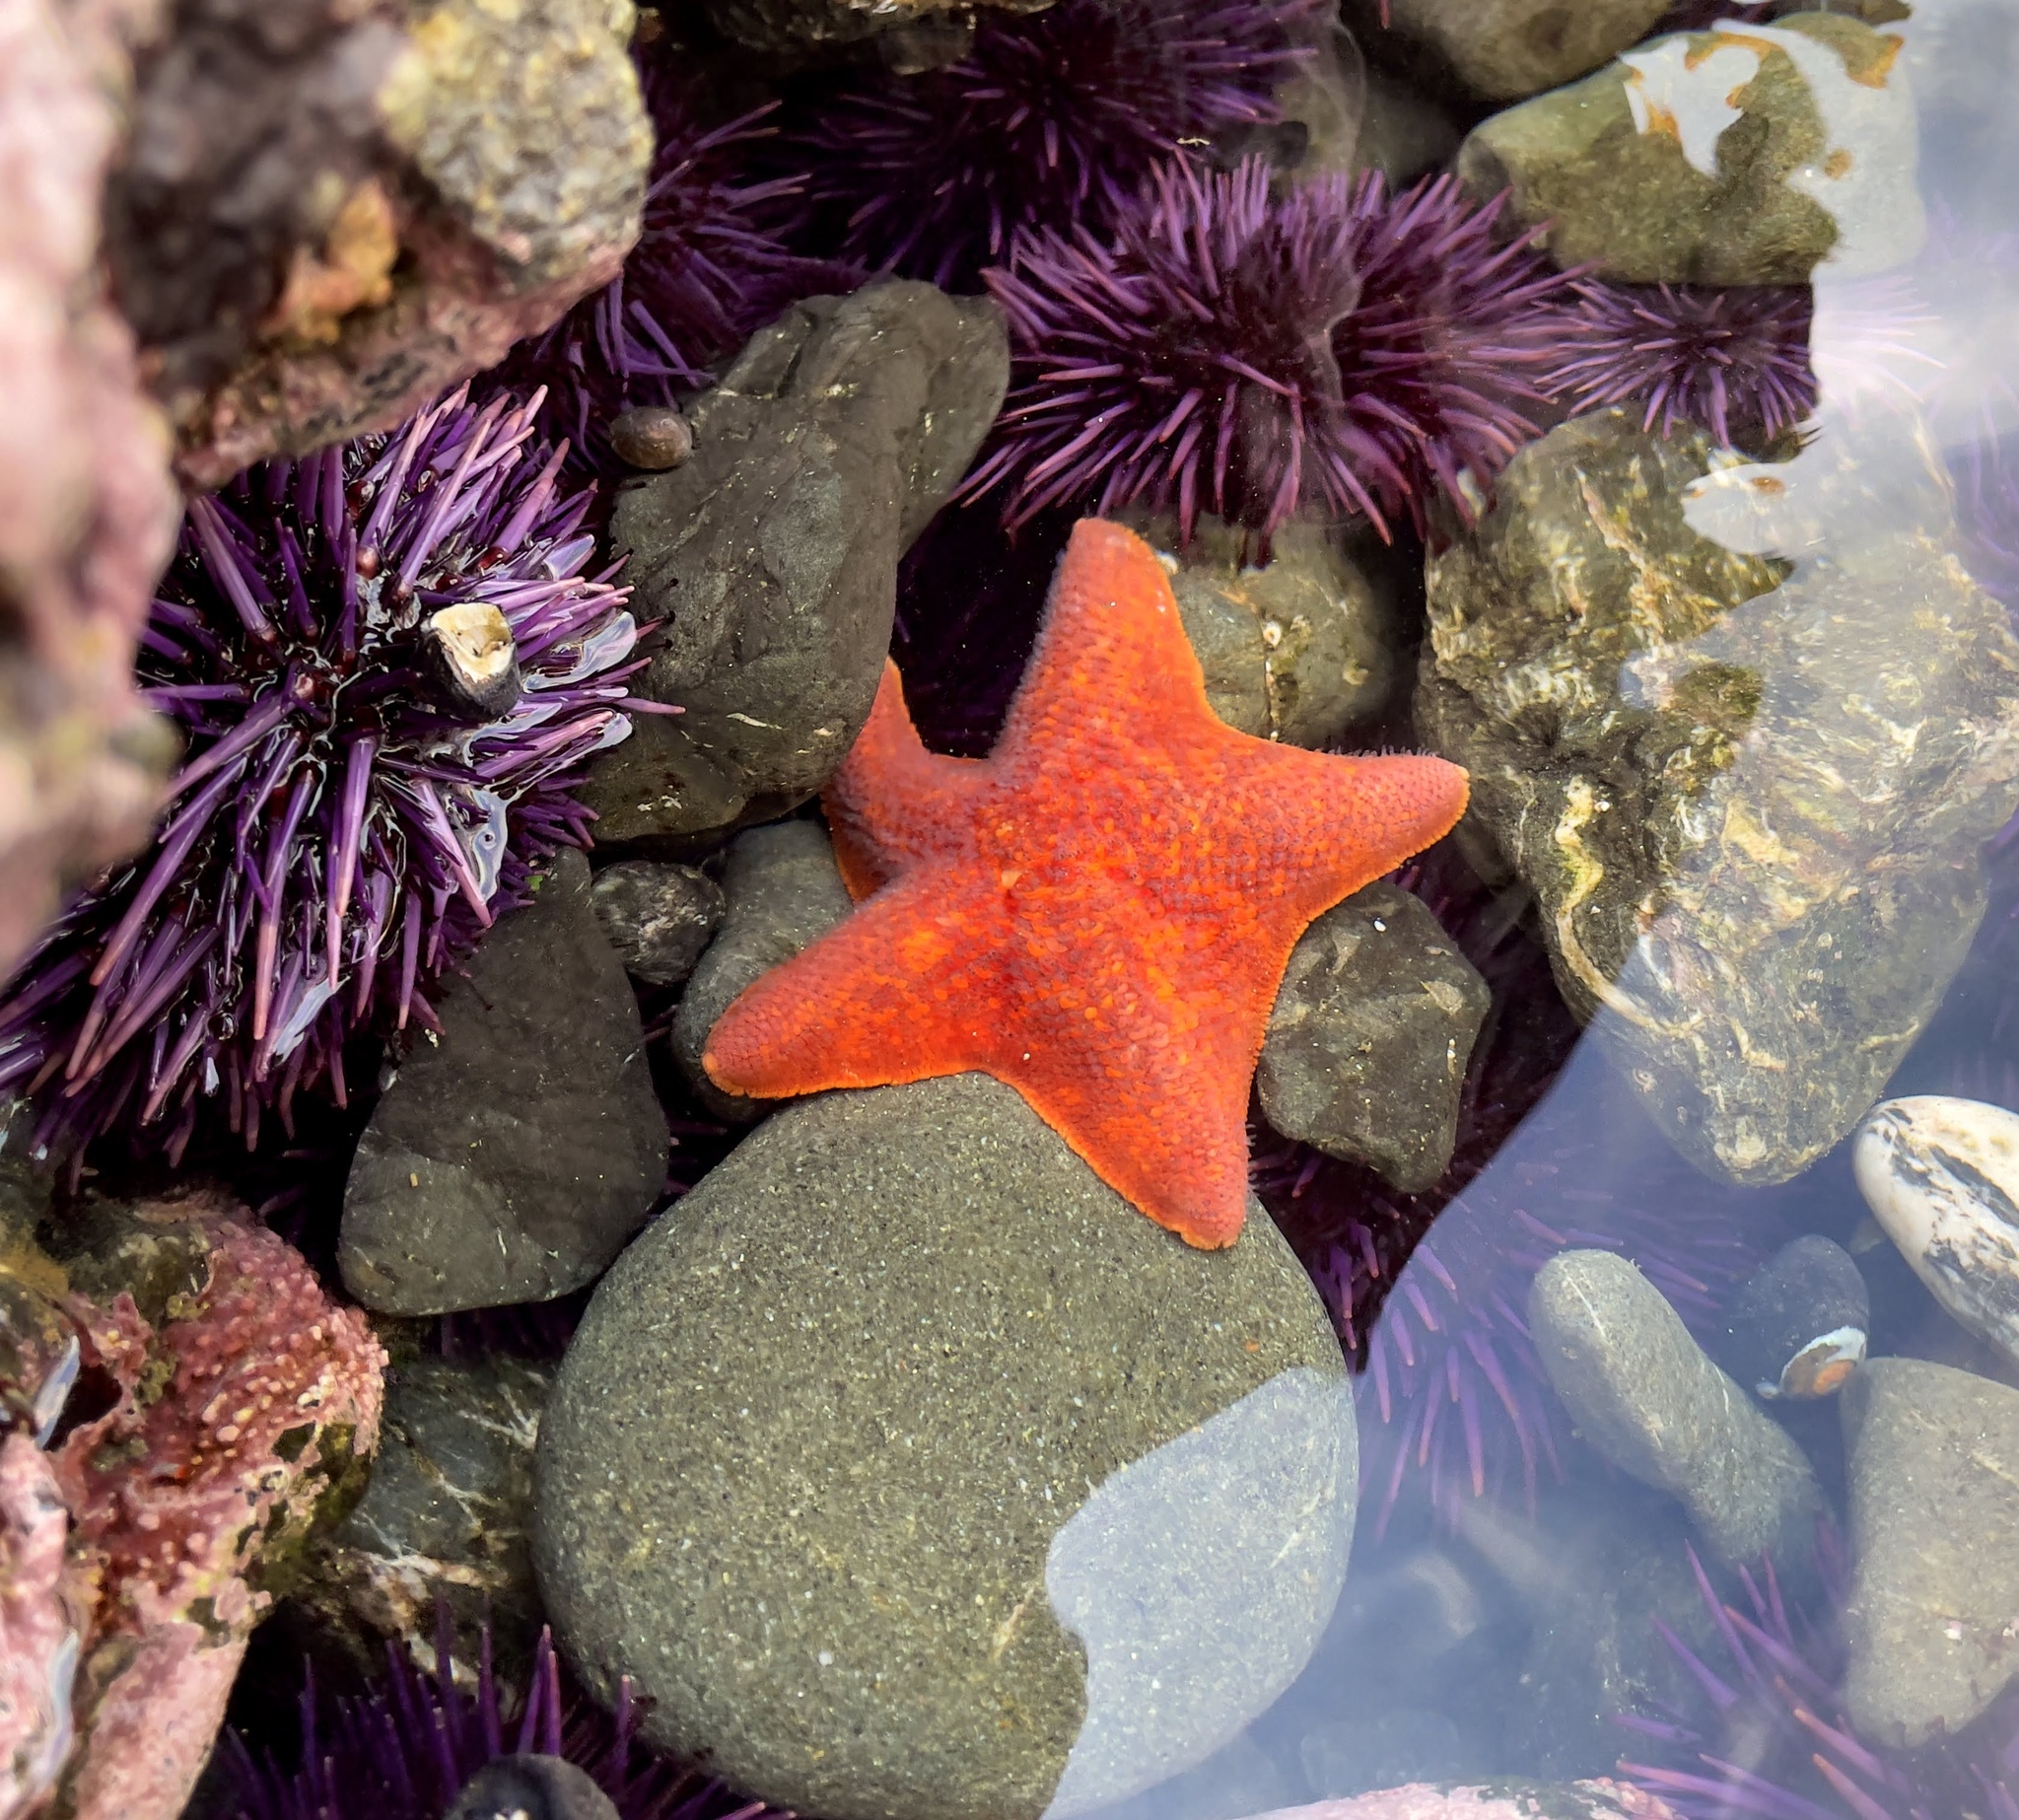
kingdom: Animalia
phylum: Echinodermata
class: Asteroidea
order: Valvatida
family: Asterinidae
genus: Patiria
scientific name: Patiria miniata
